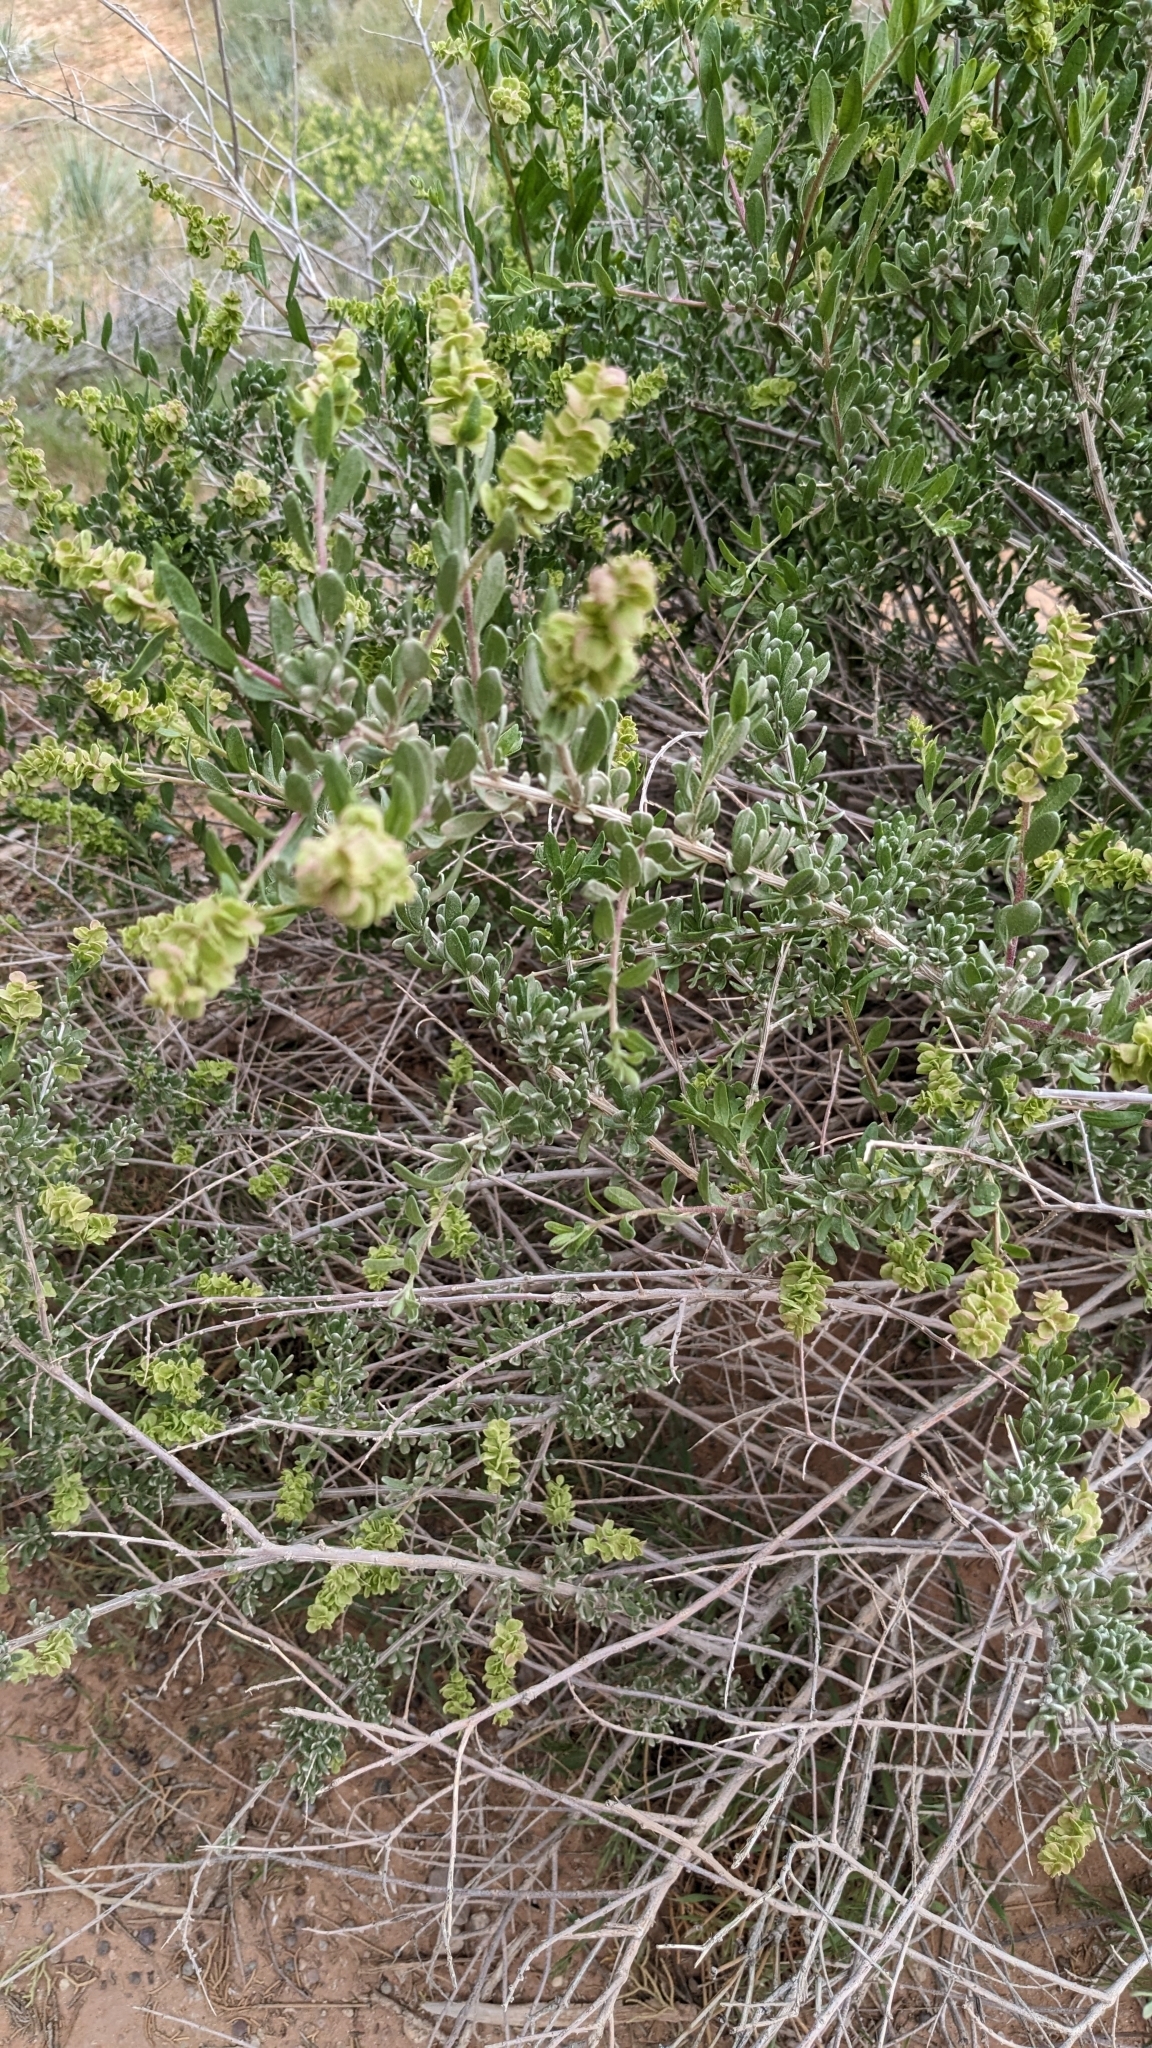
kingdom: Plantae
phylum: Tracheophyta
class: Magnoliopsida
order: Caryophyllales
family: Amaranthaceae
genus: Grayia
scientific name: Grayia spinosa
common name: Spiny hopsage
